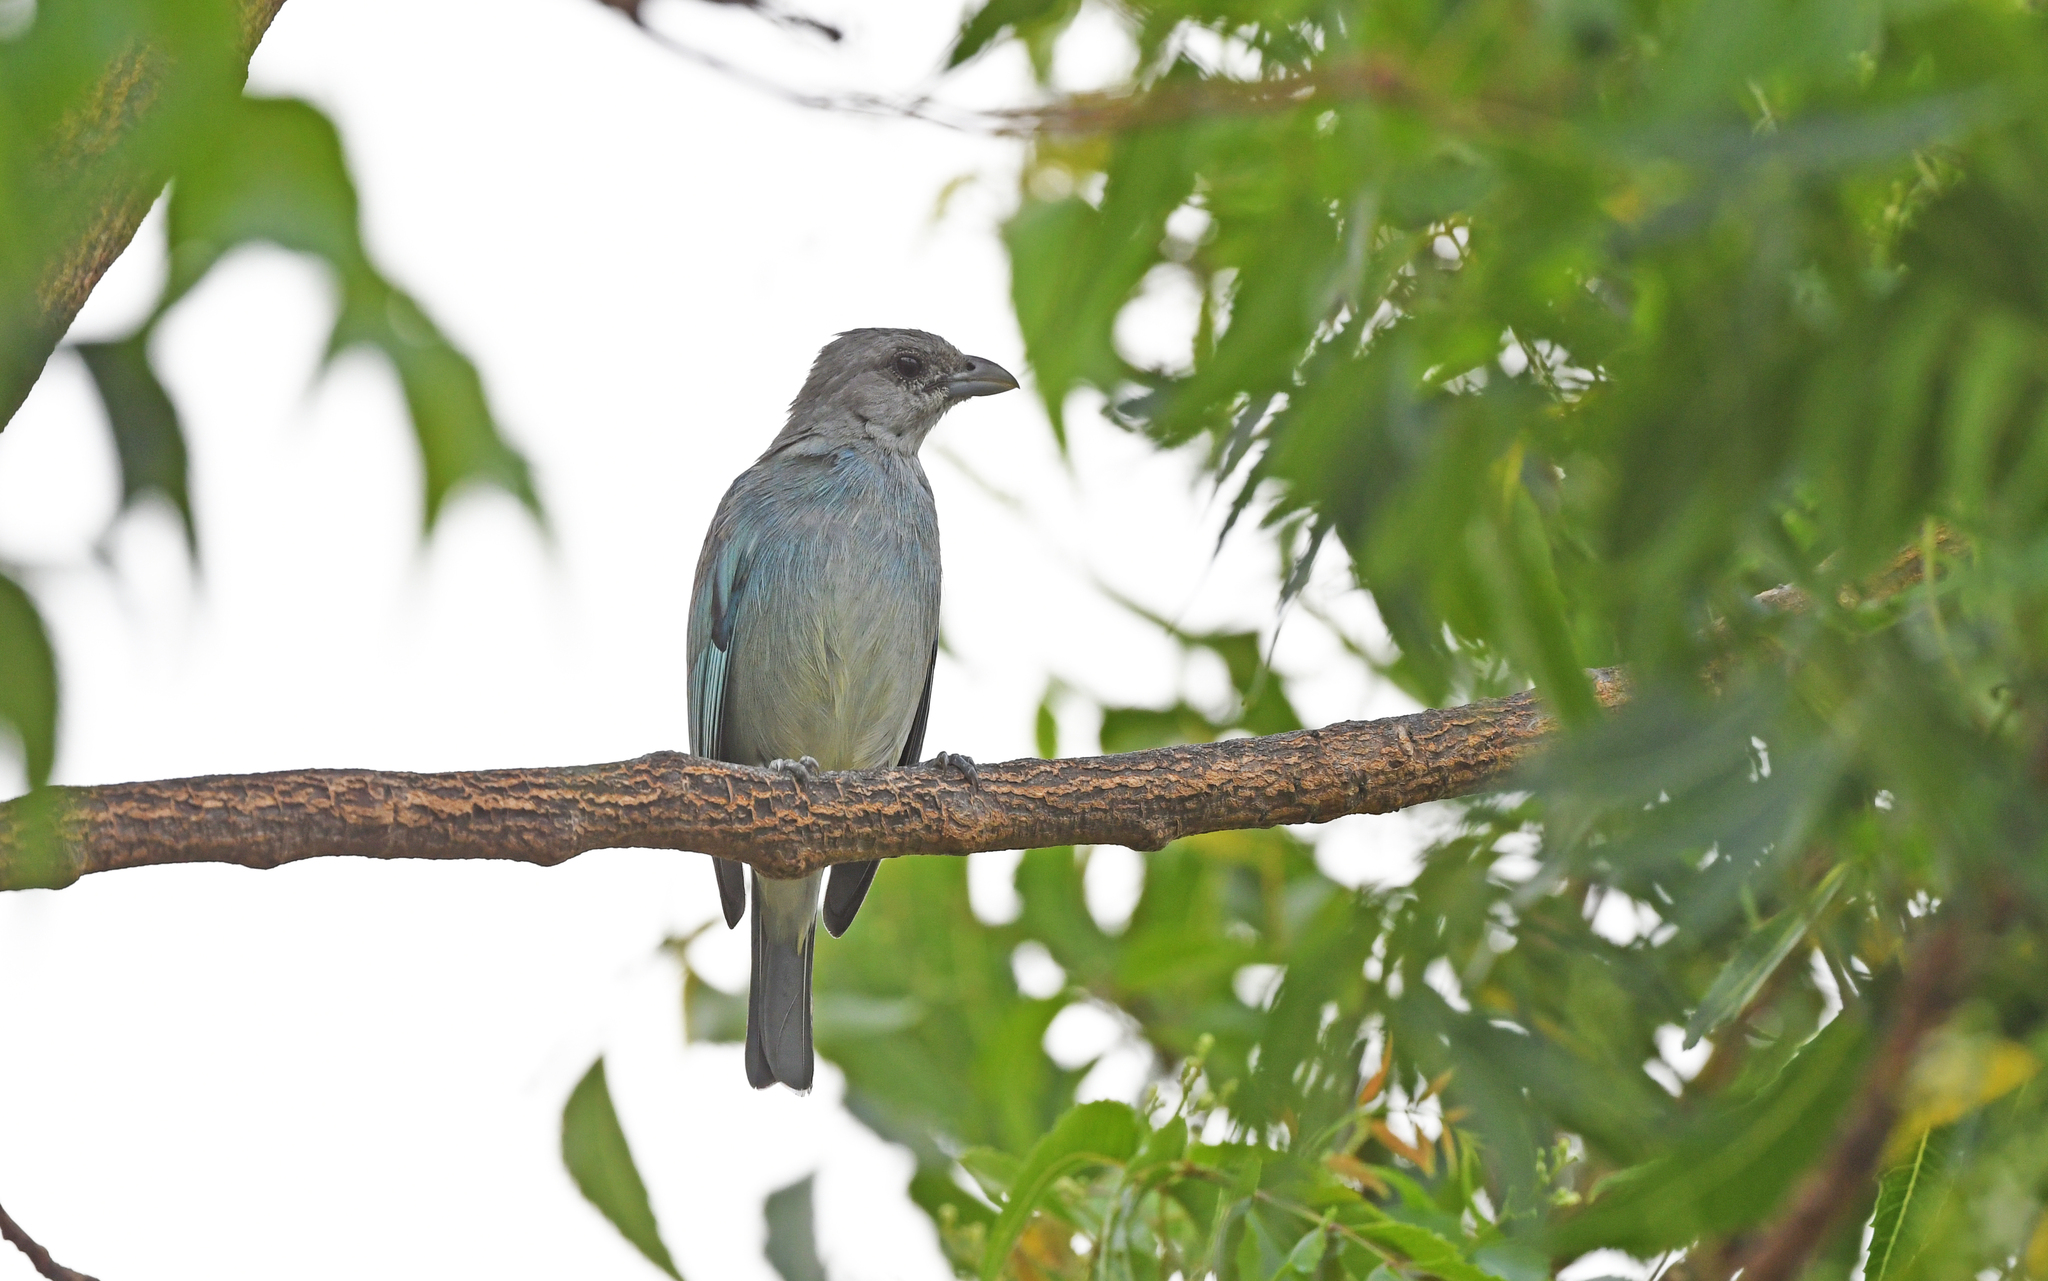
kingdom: Animalia
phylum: Chordata
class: Aves
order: Passeriformes
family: Thraupidae
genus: Thraupis
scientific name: Thraupis glaucocolpa
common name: Glaucous tanager
